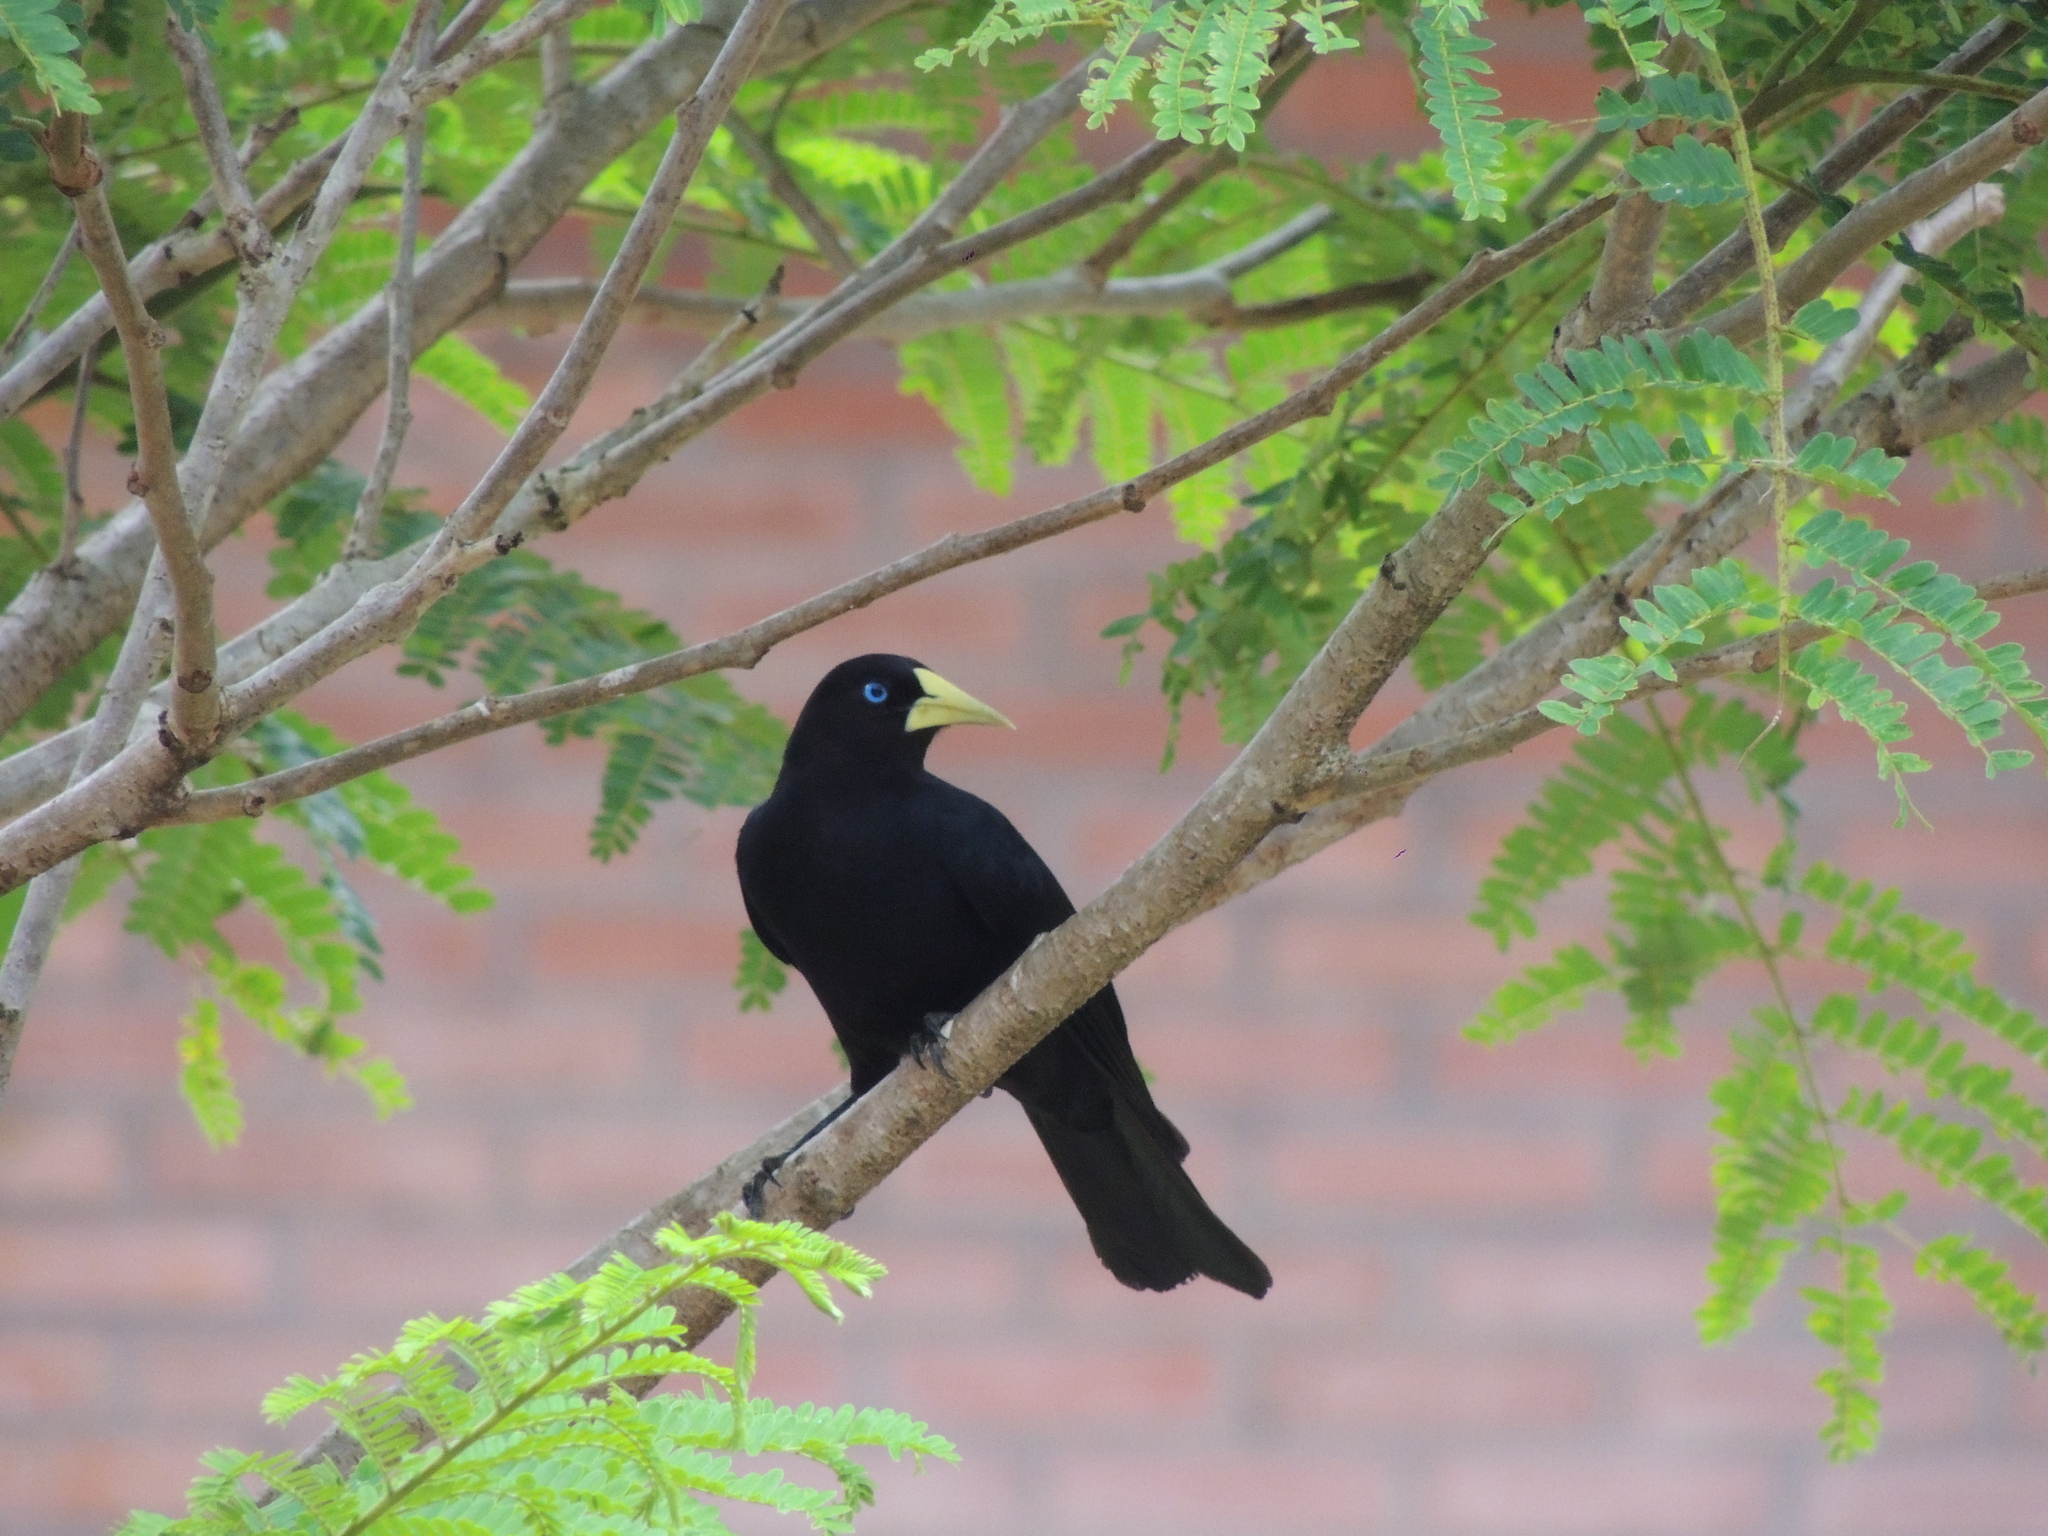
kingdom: Animalia
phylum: Chordata
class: Aves
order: Passeriformes
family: Icteridae
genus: Cacicus
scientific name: Cacicus haemorrhous
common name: Red-rumped cacique
